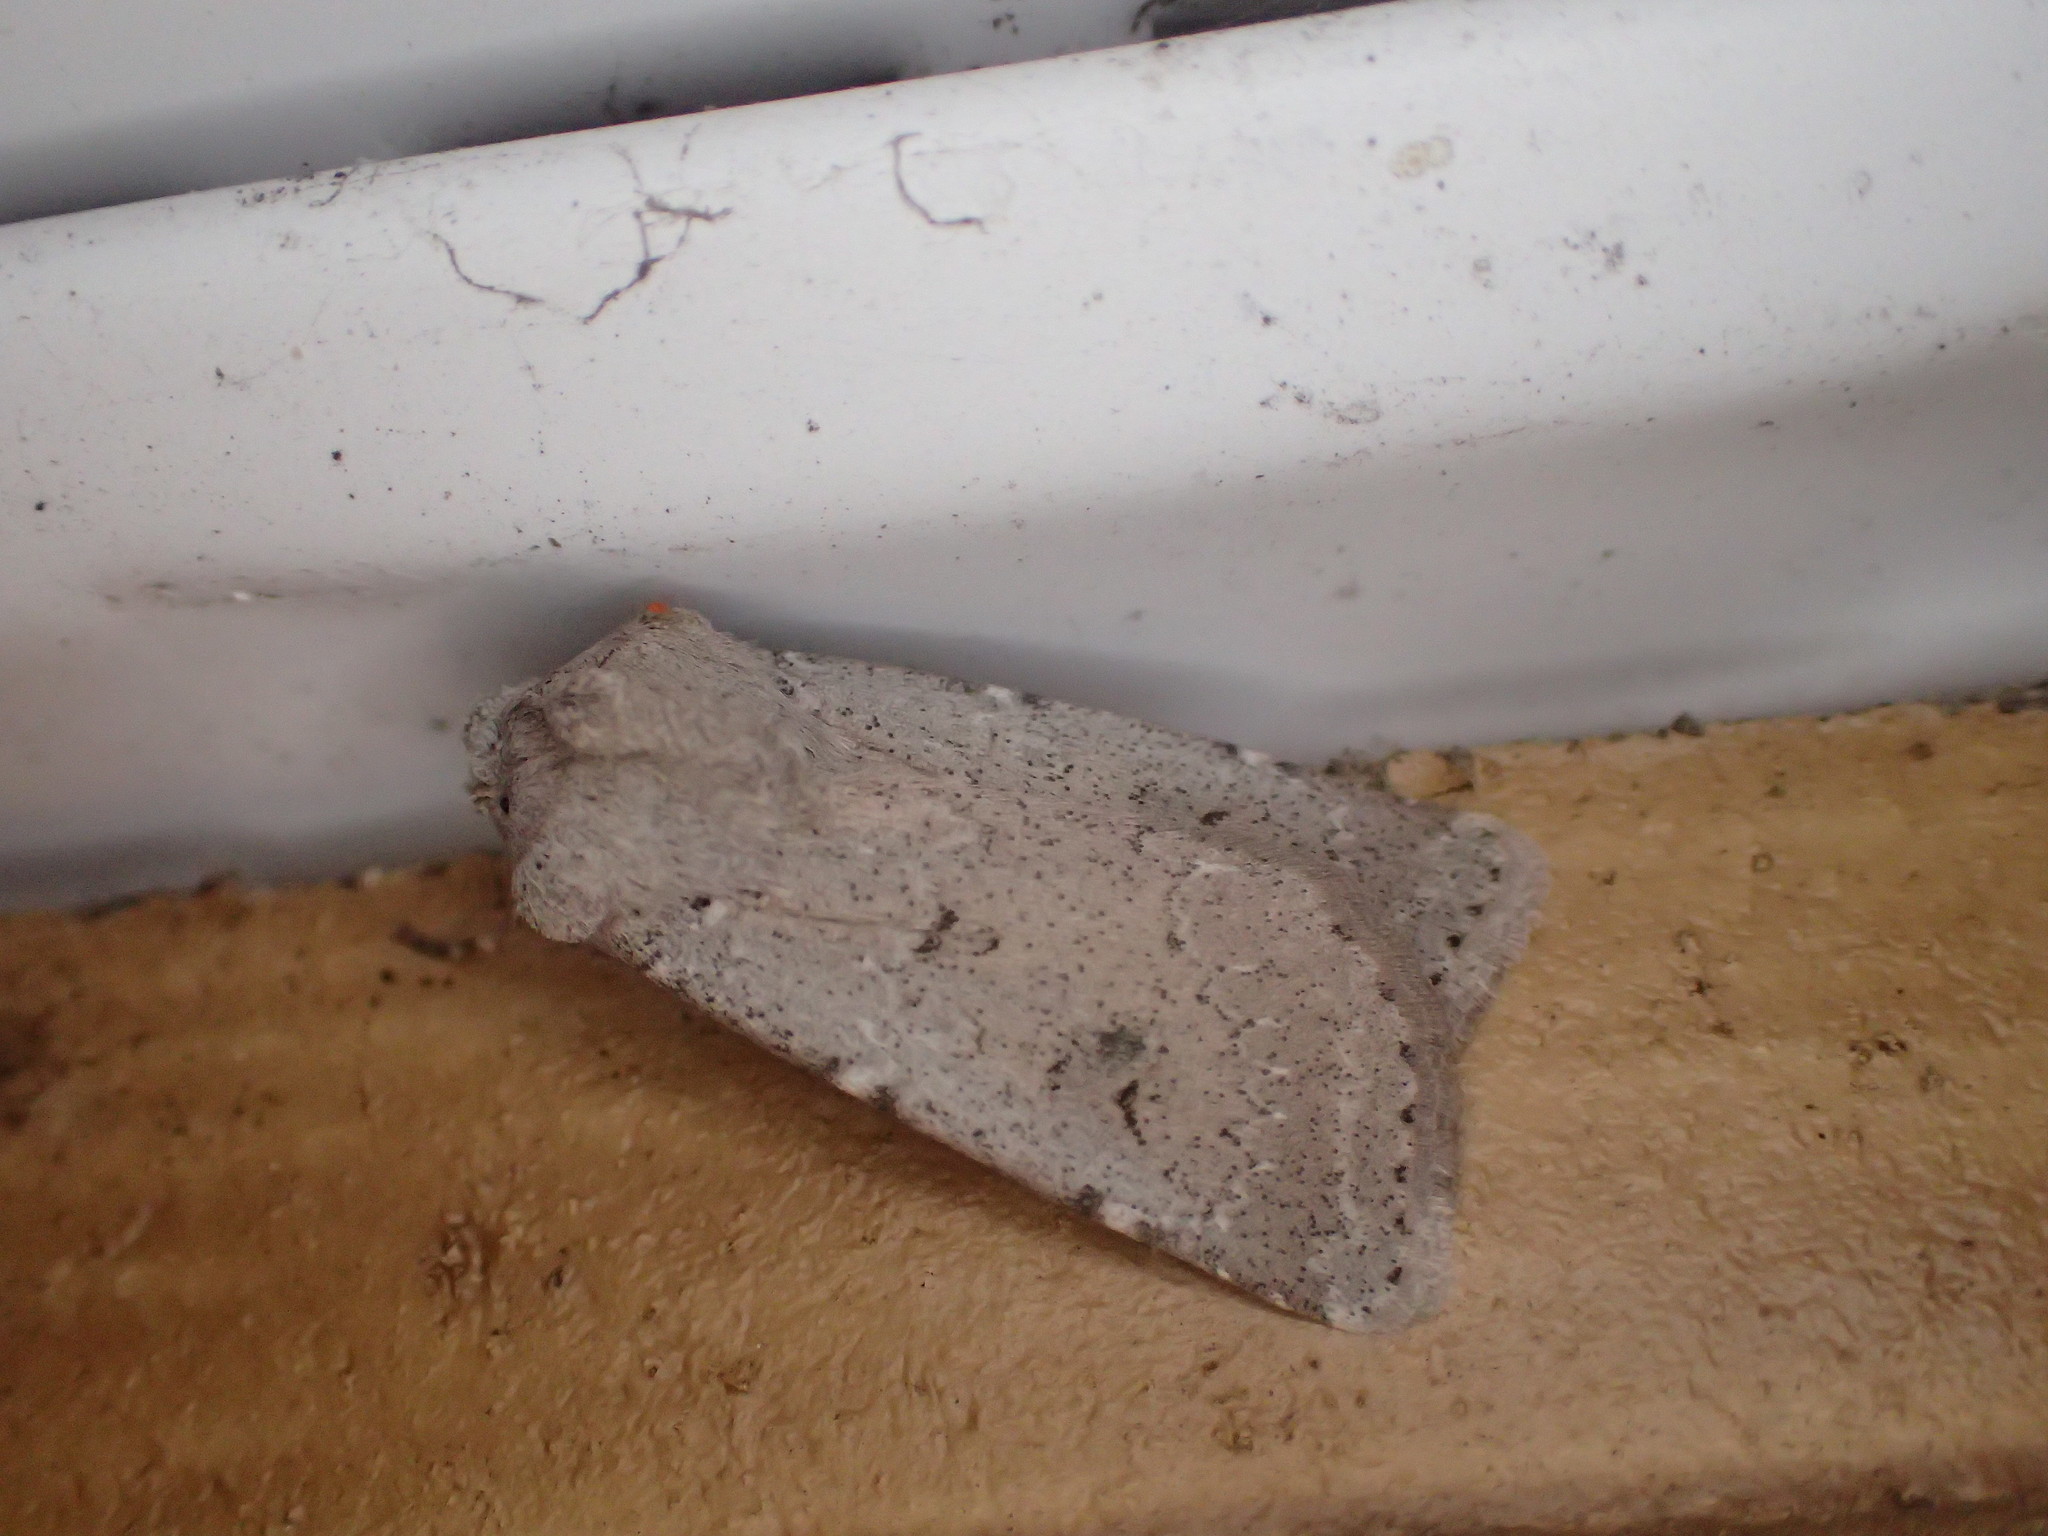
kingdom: Animalia
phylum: Arthropoda
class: Insecta
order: Lepidoptera
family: Noctuidae
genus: Agrotis
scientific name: Agrotis vetusta
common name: Old man dart
